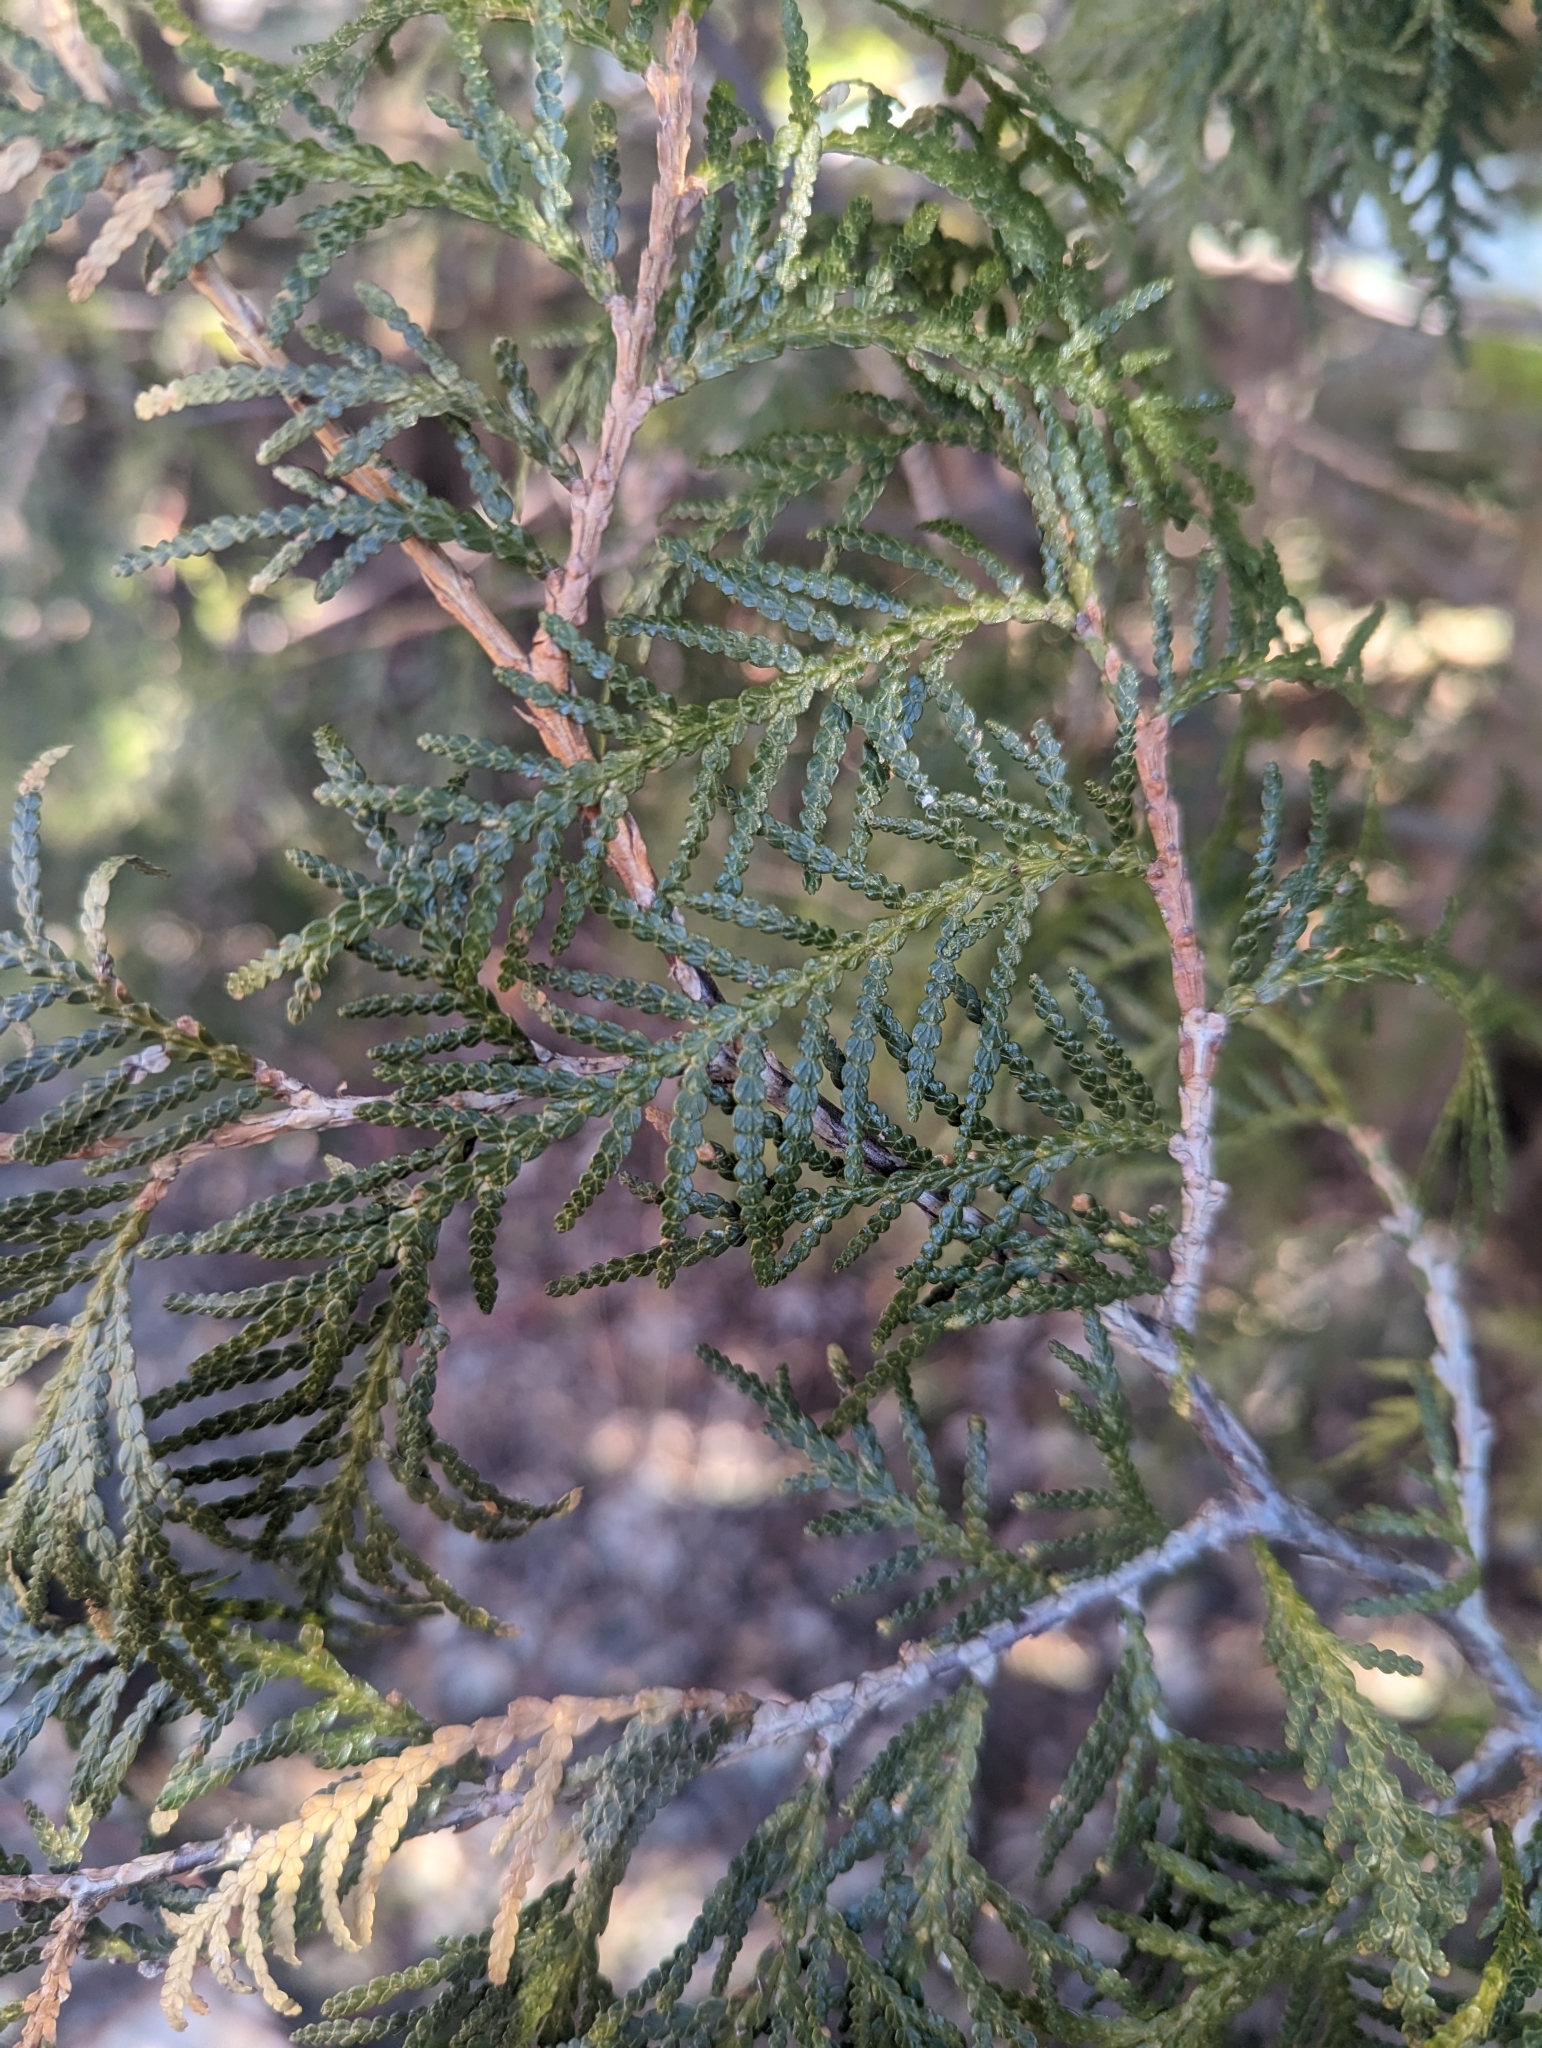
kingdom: Plantae
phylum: Tracheophyta
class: Pinopsida
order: Pinales
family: Cupressaceae
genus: Thuja
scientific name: Thuja occidentalis
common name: Northern white-cedar
